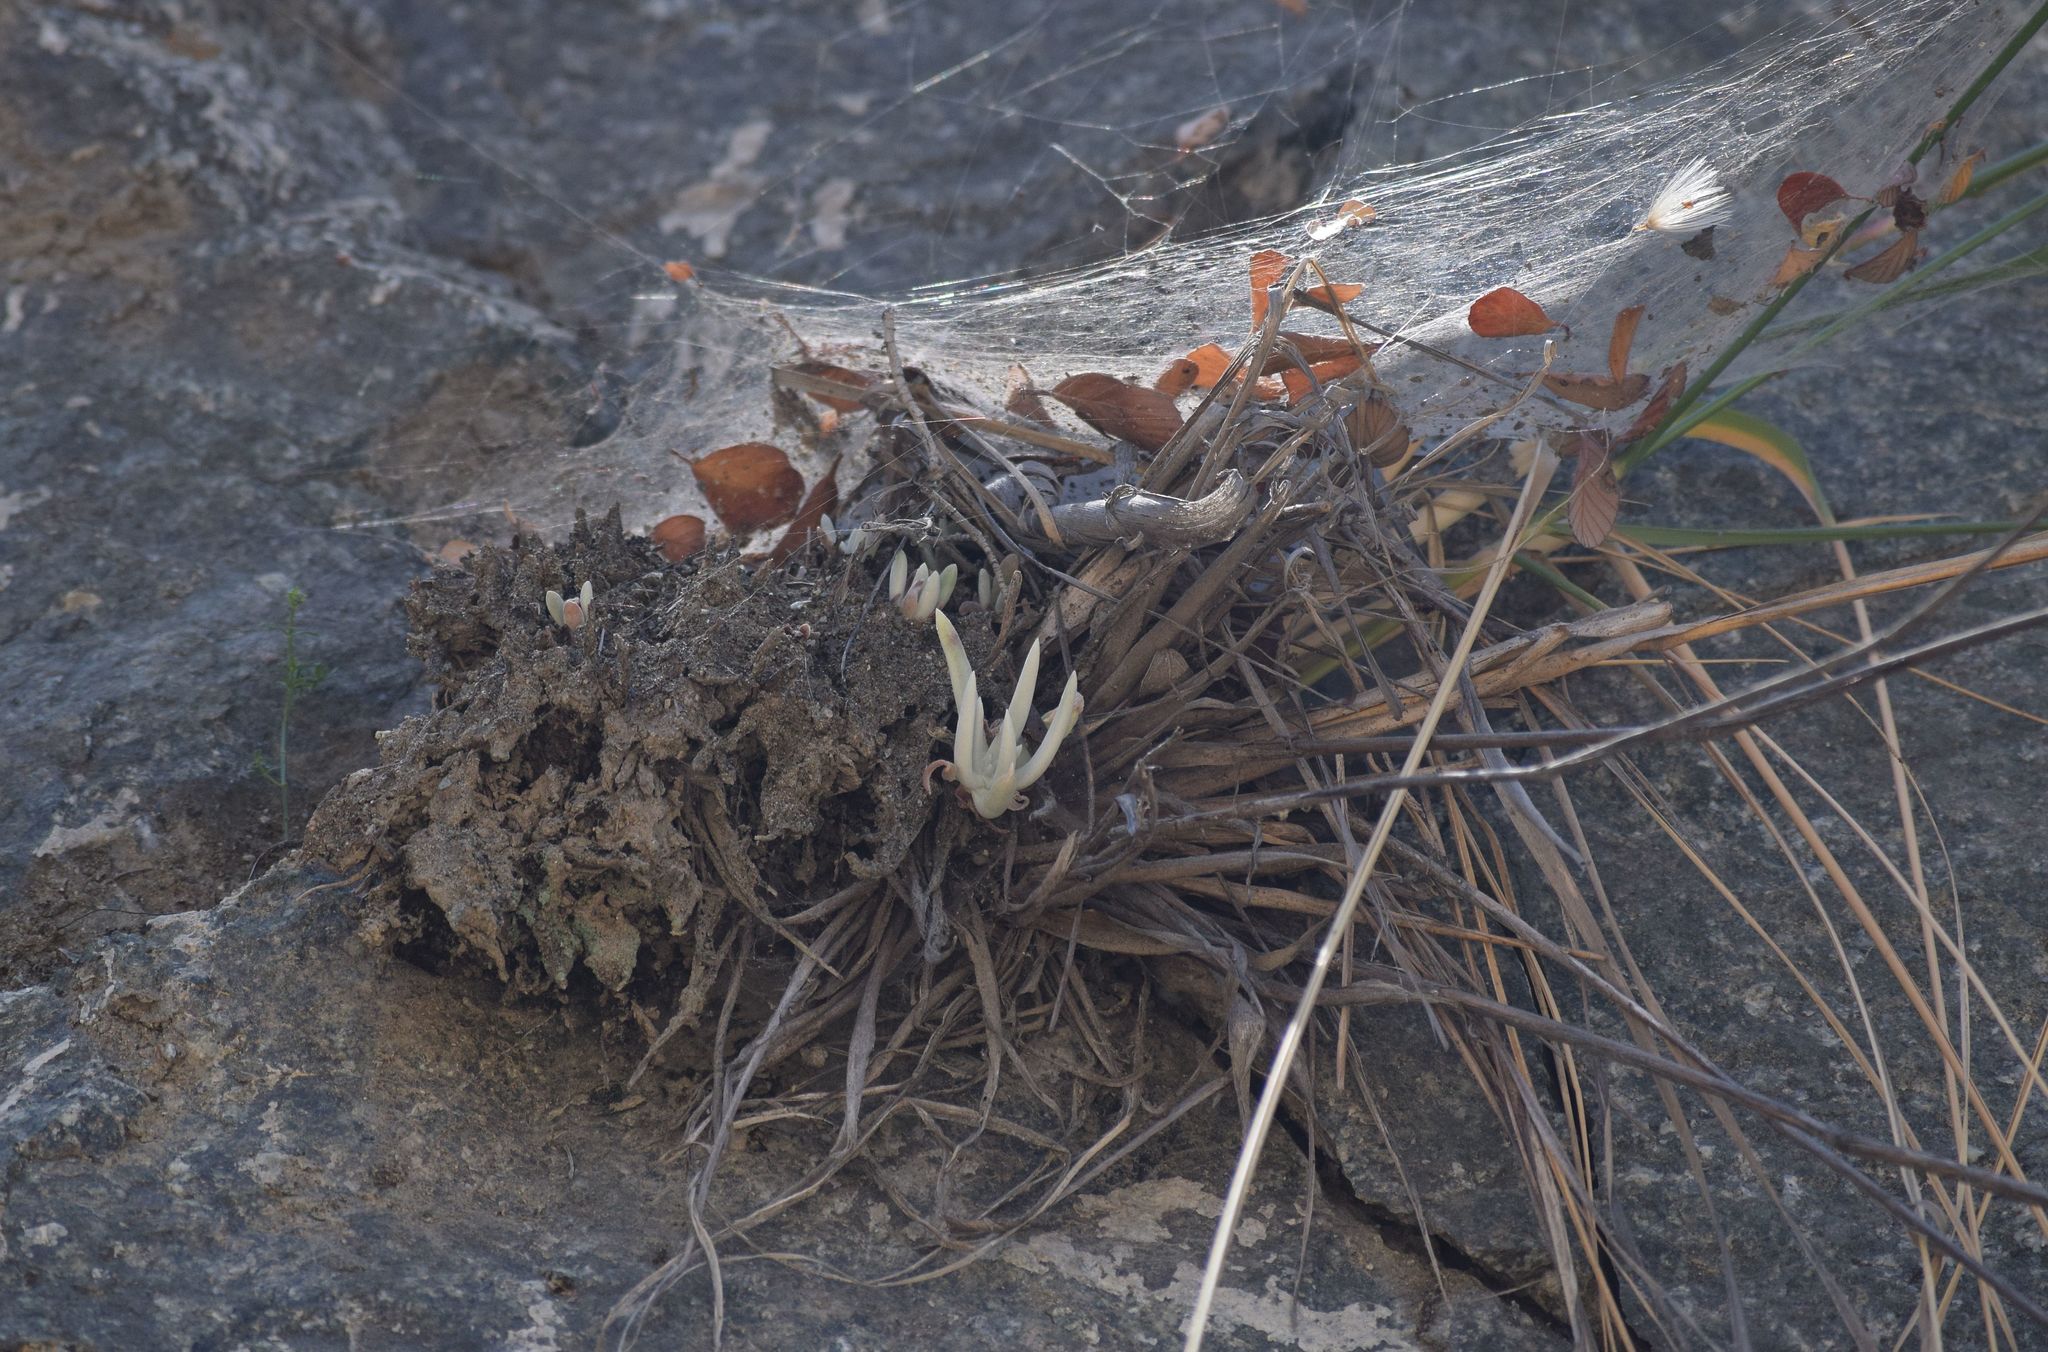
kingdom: Plantae
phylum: Tracheophyta
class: Magnoliopsida
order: Saxifragales
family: Crassulaceae
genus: Dudleya
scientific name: Dudleya densiflora
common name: San gabriel mountains dudleya
